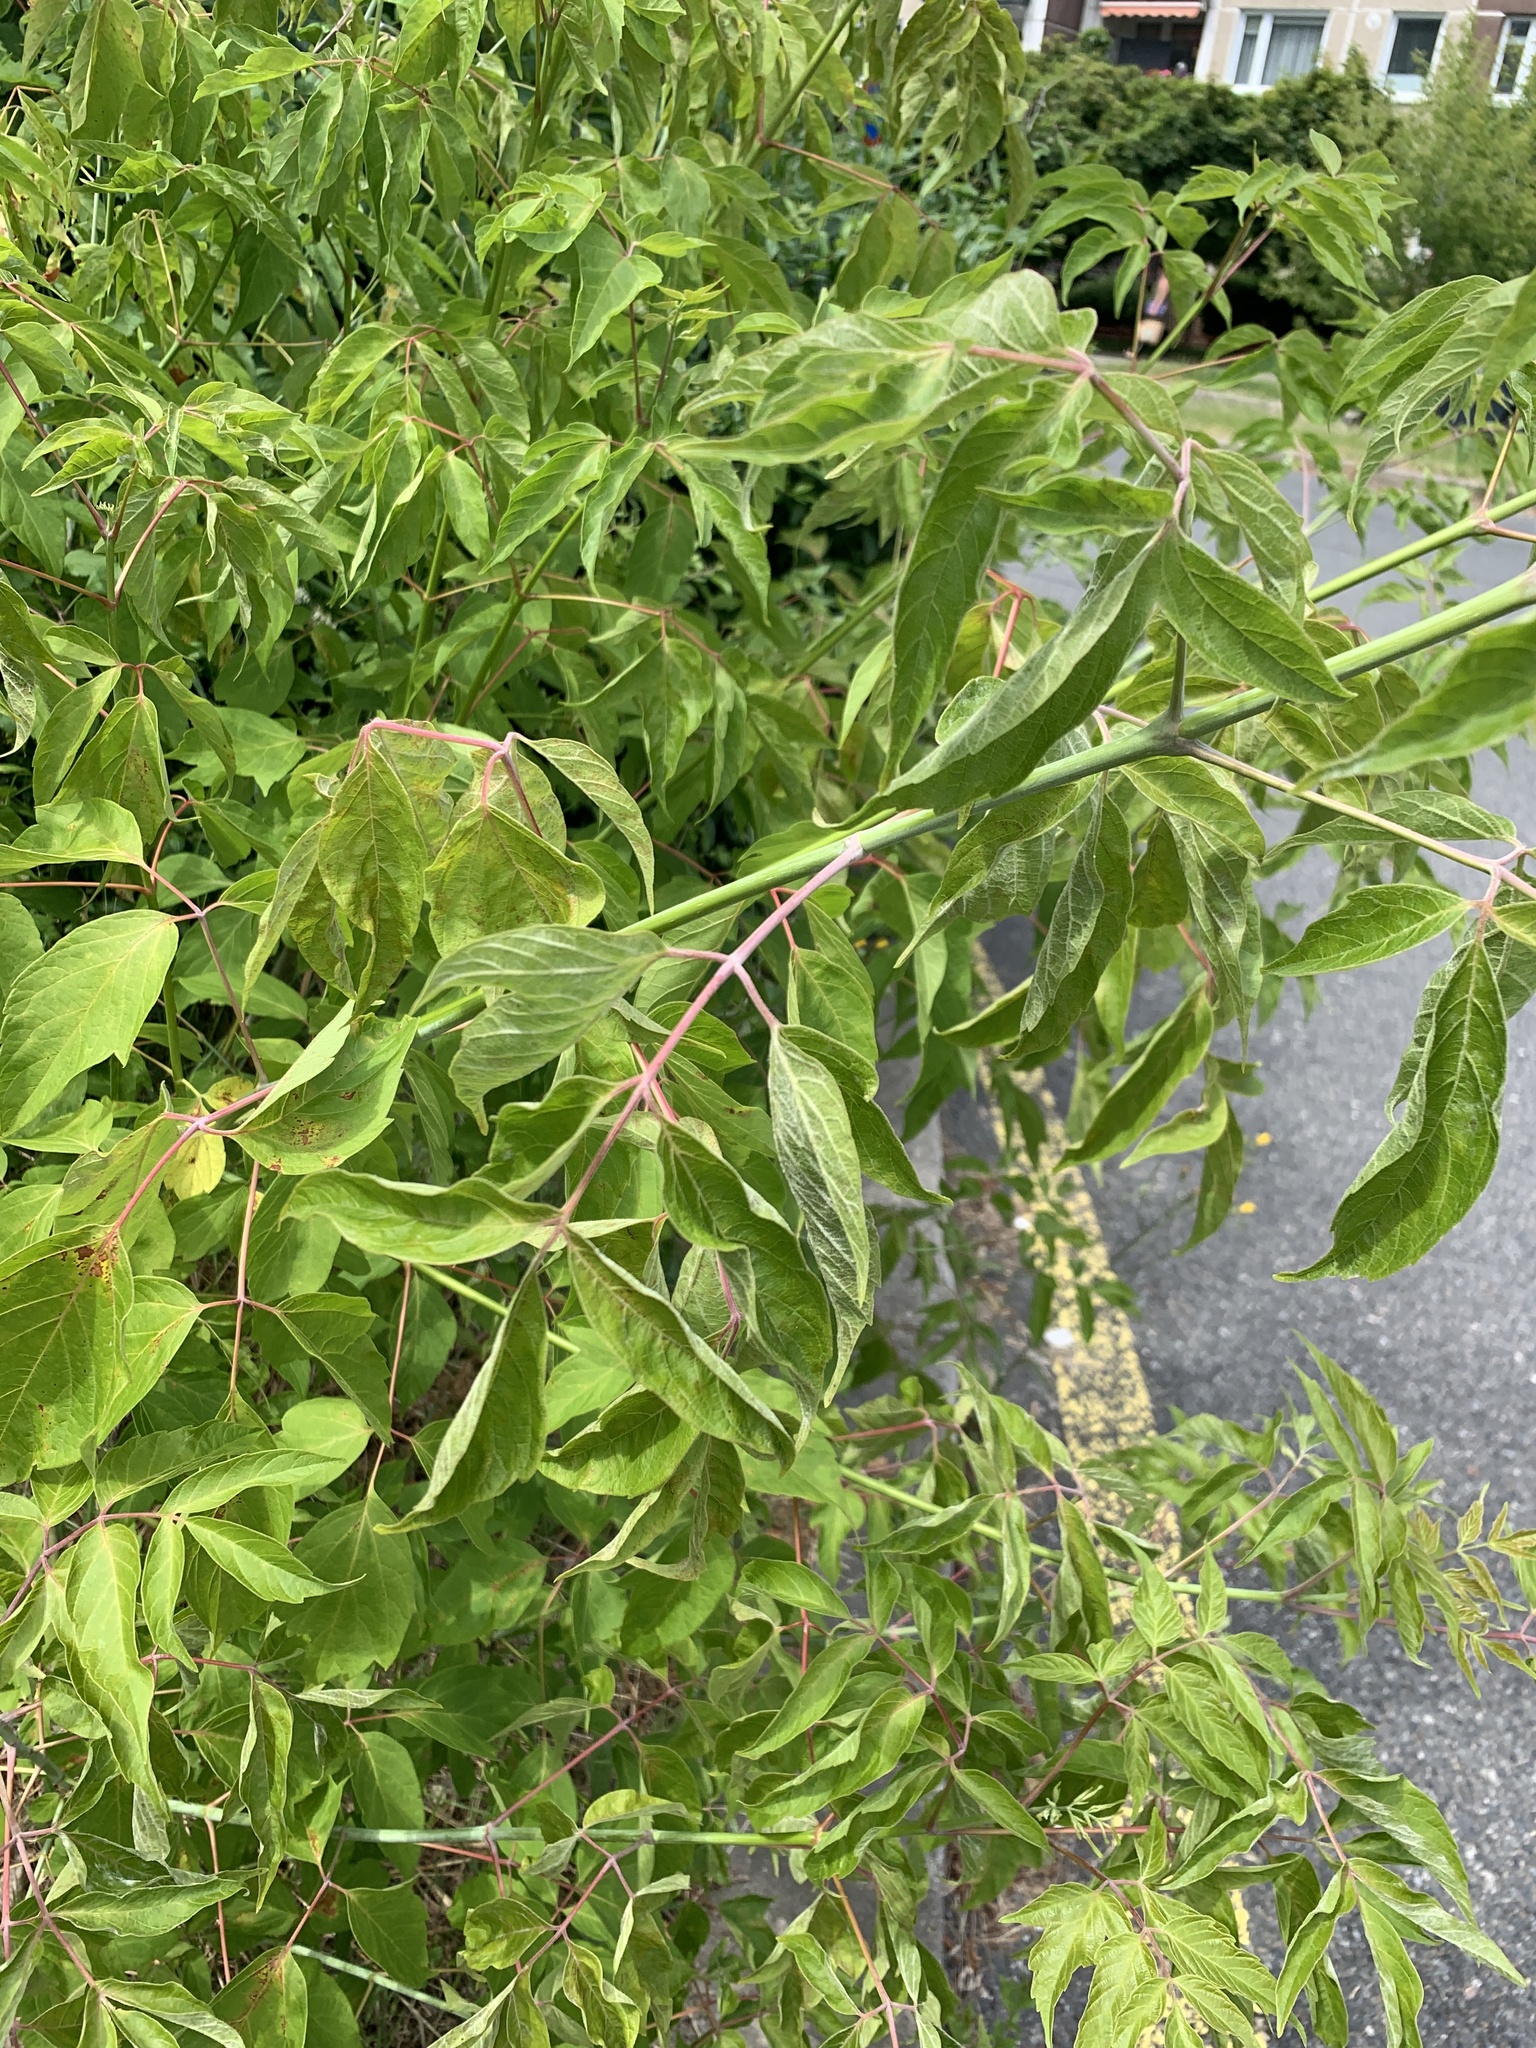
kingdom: Plantae
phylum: Tracheophyta
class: Magnoliopsida
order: Sapindales
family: Sapindaceae
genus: Acer
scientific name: Acer negundo
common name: Ashleaf maple
